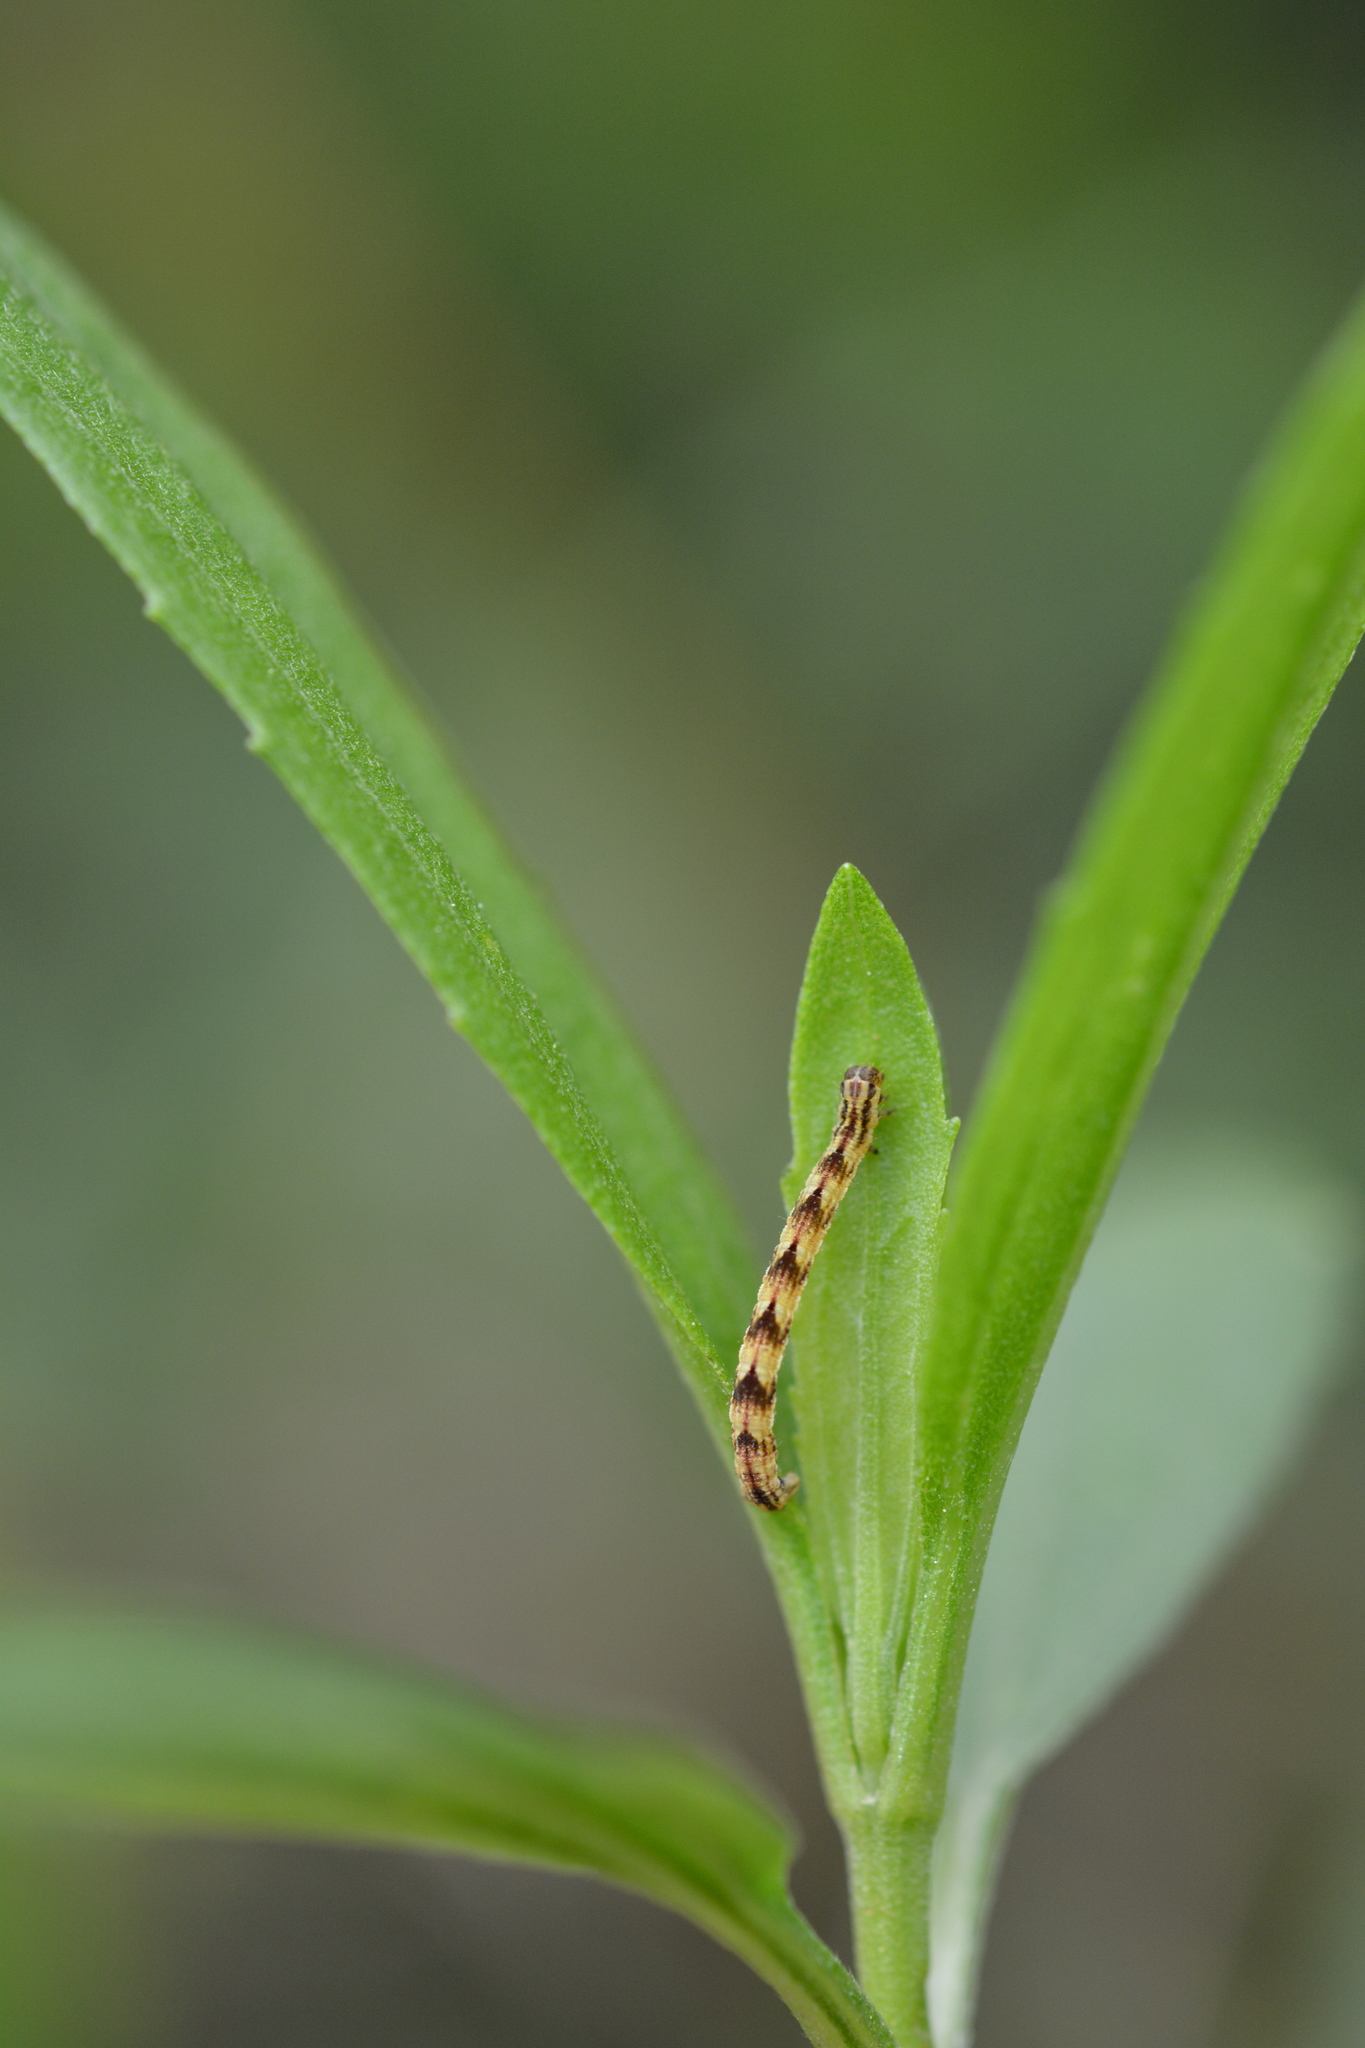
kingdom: Animalia
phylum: Arthropoda
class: Insecta
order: Lepidoptera
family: Geometridae
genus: Eupithecia
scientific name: Eupithecia miserulata
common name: Common eupithecia
